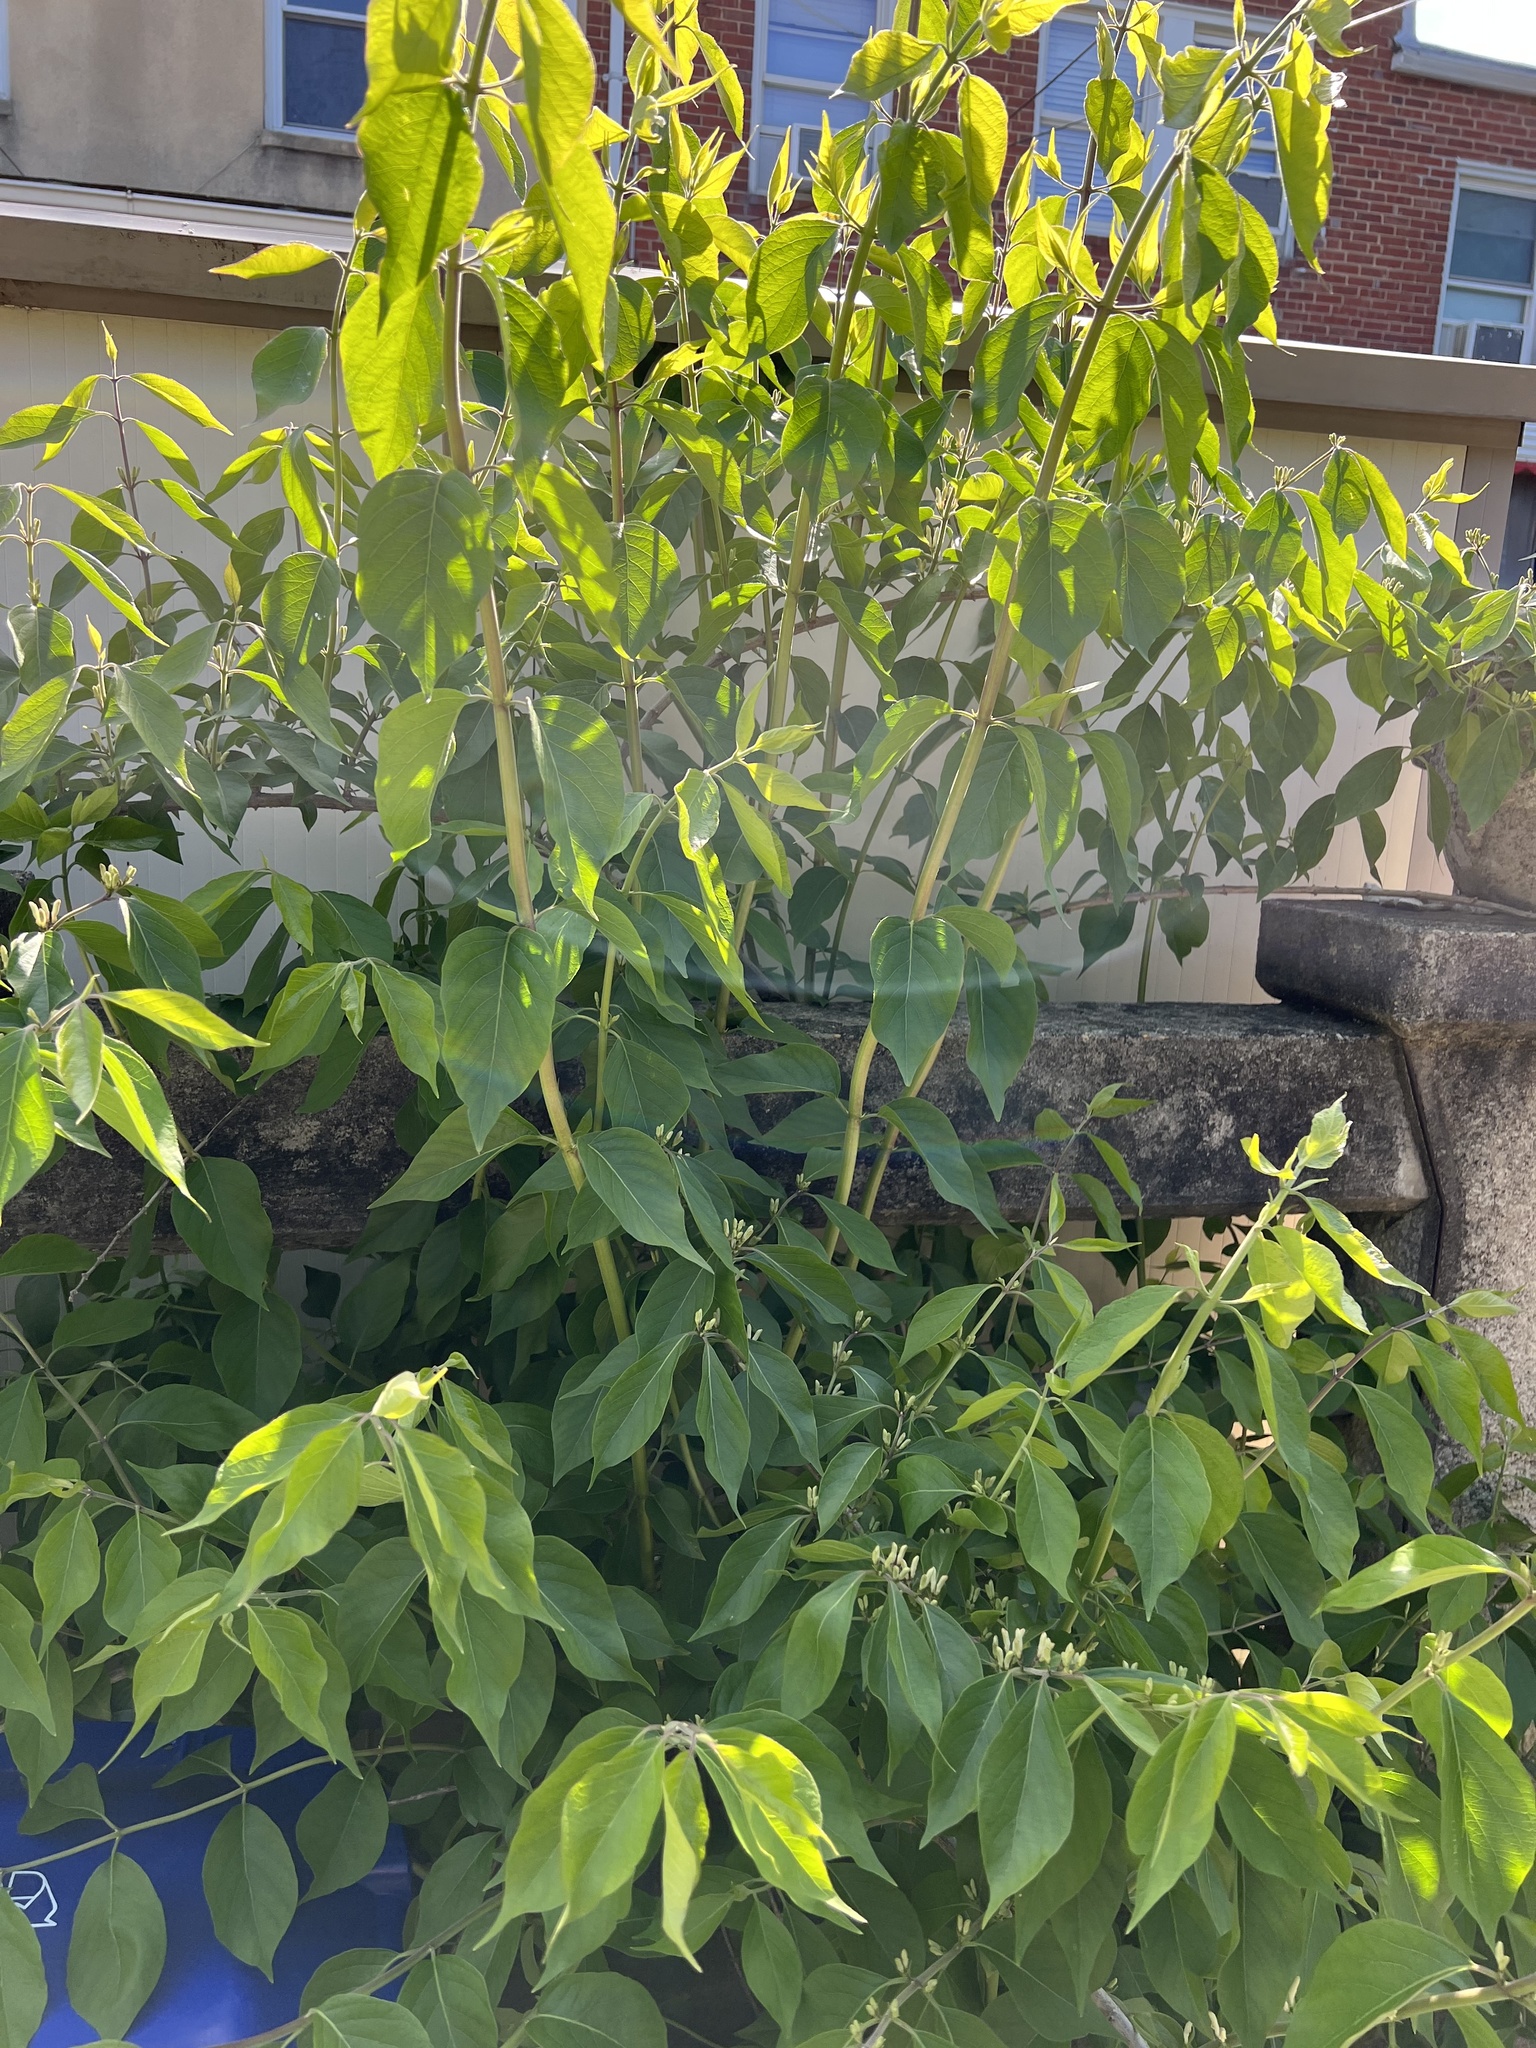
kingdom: Plantae
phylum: Tracheophyta
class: Magnoliopsida
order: Dipsacales
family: Caprifoliaceae
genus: Lonicera
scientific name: Lonicera maackii
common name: Amur honeysuckle
